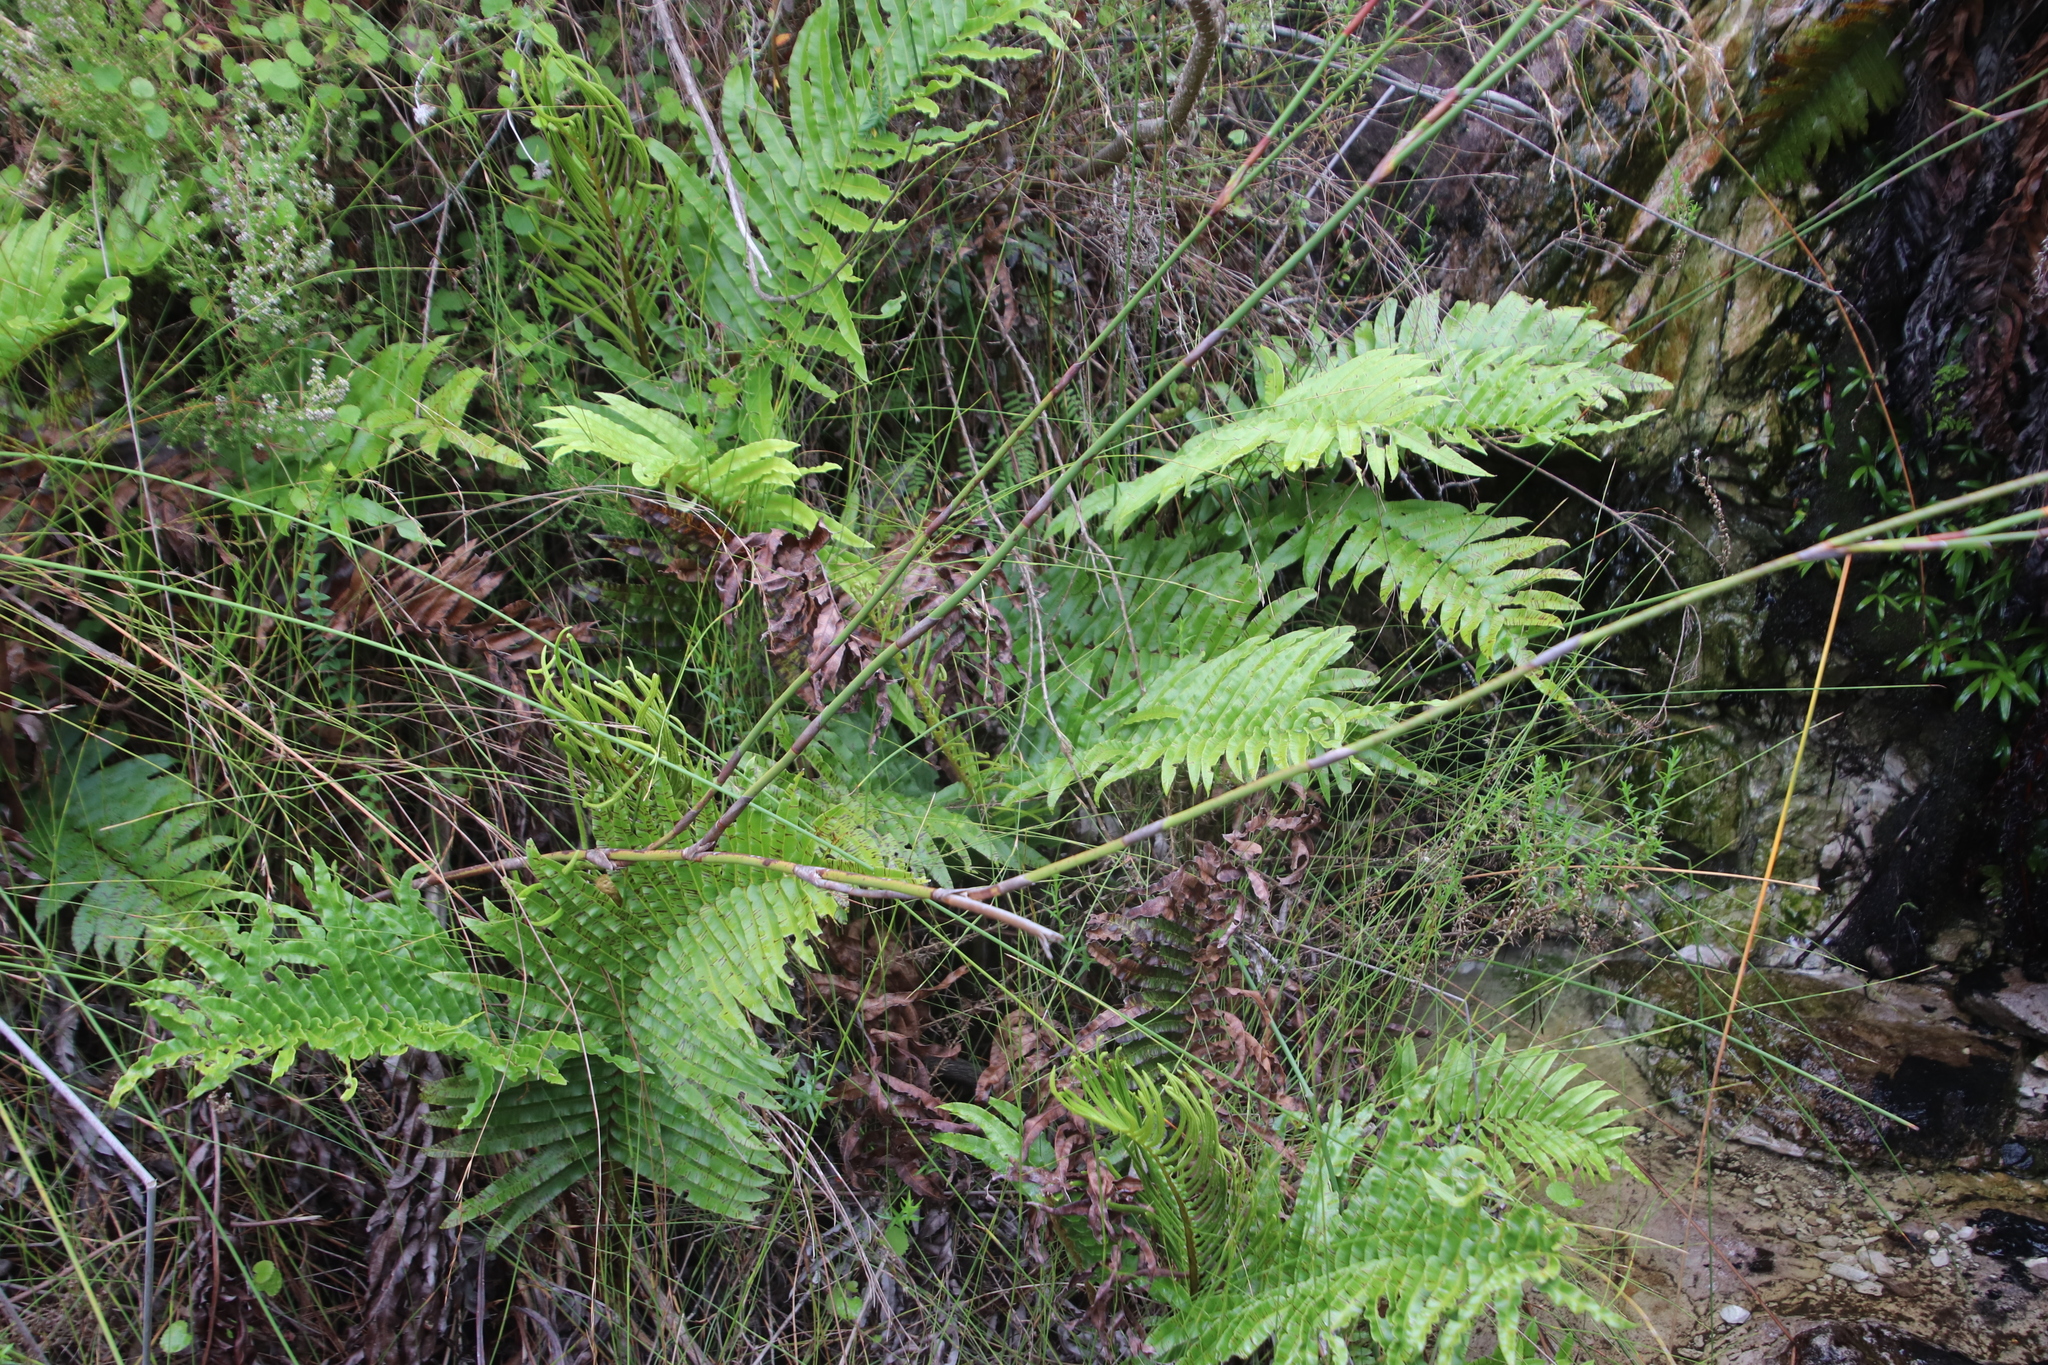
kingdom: Plantae
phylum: Tracheophyta
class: Polypodiopsida
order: Polypodiales
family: Blechnaceae
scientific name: Blechnaceae
